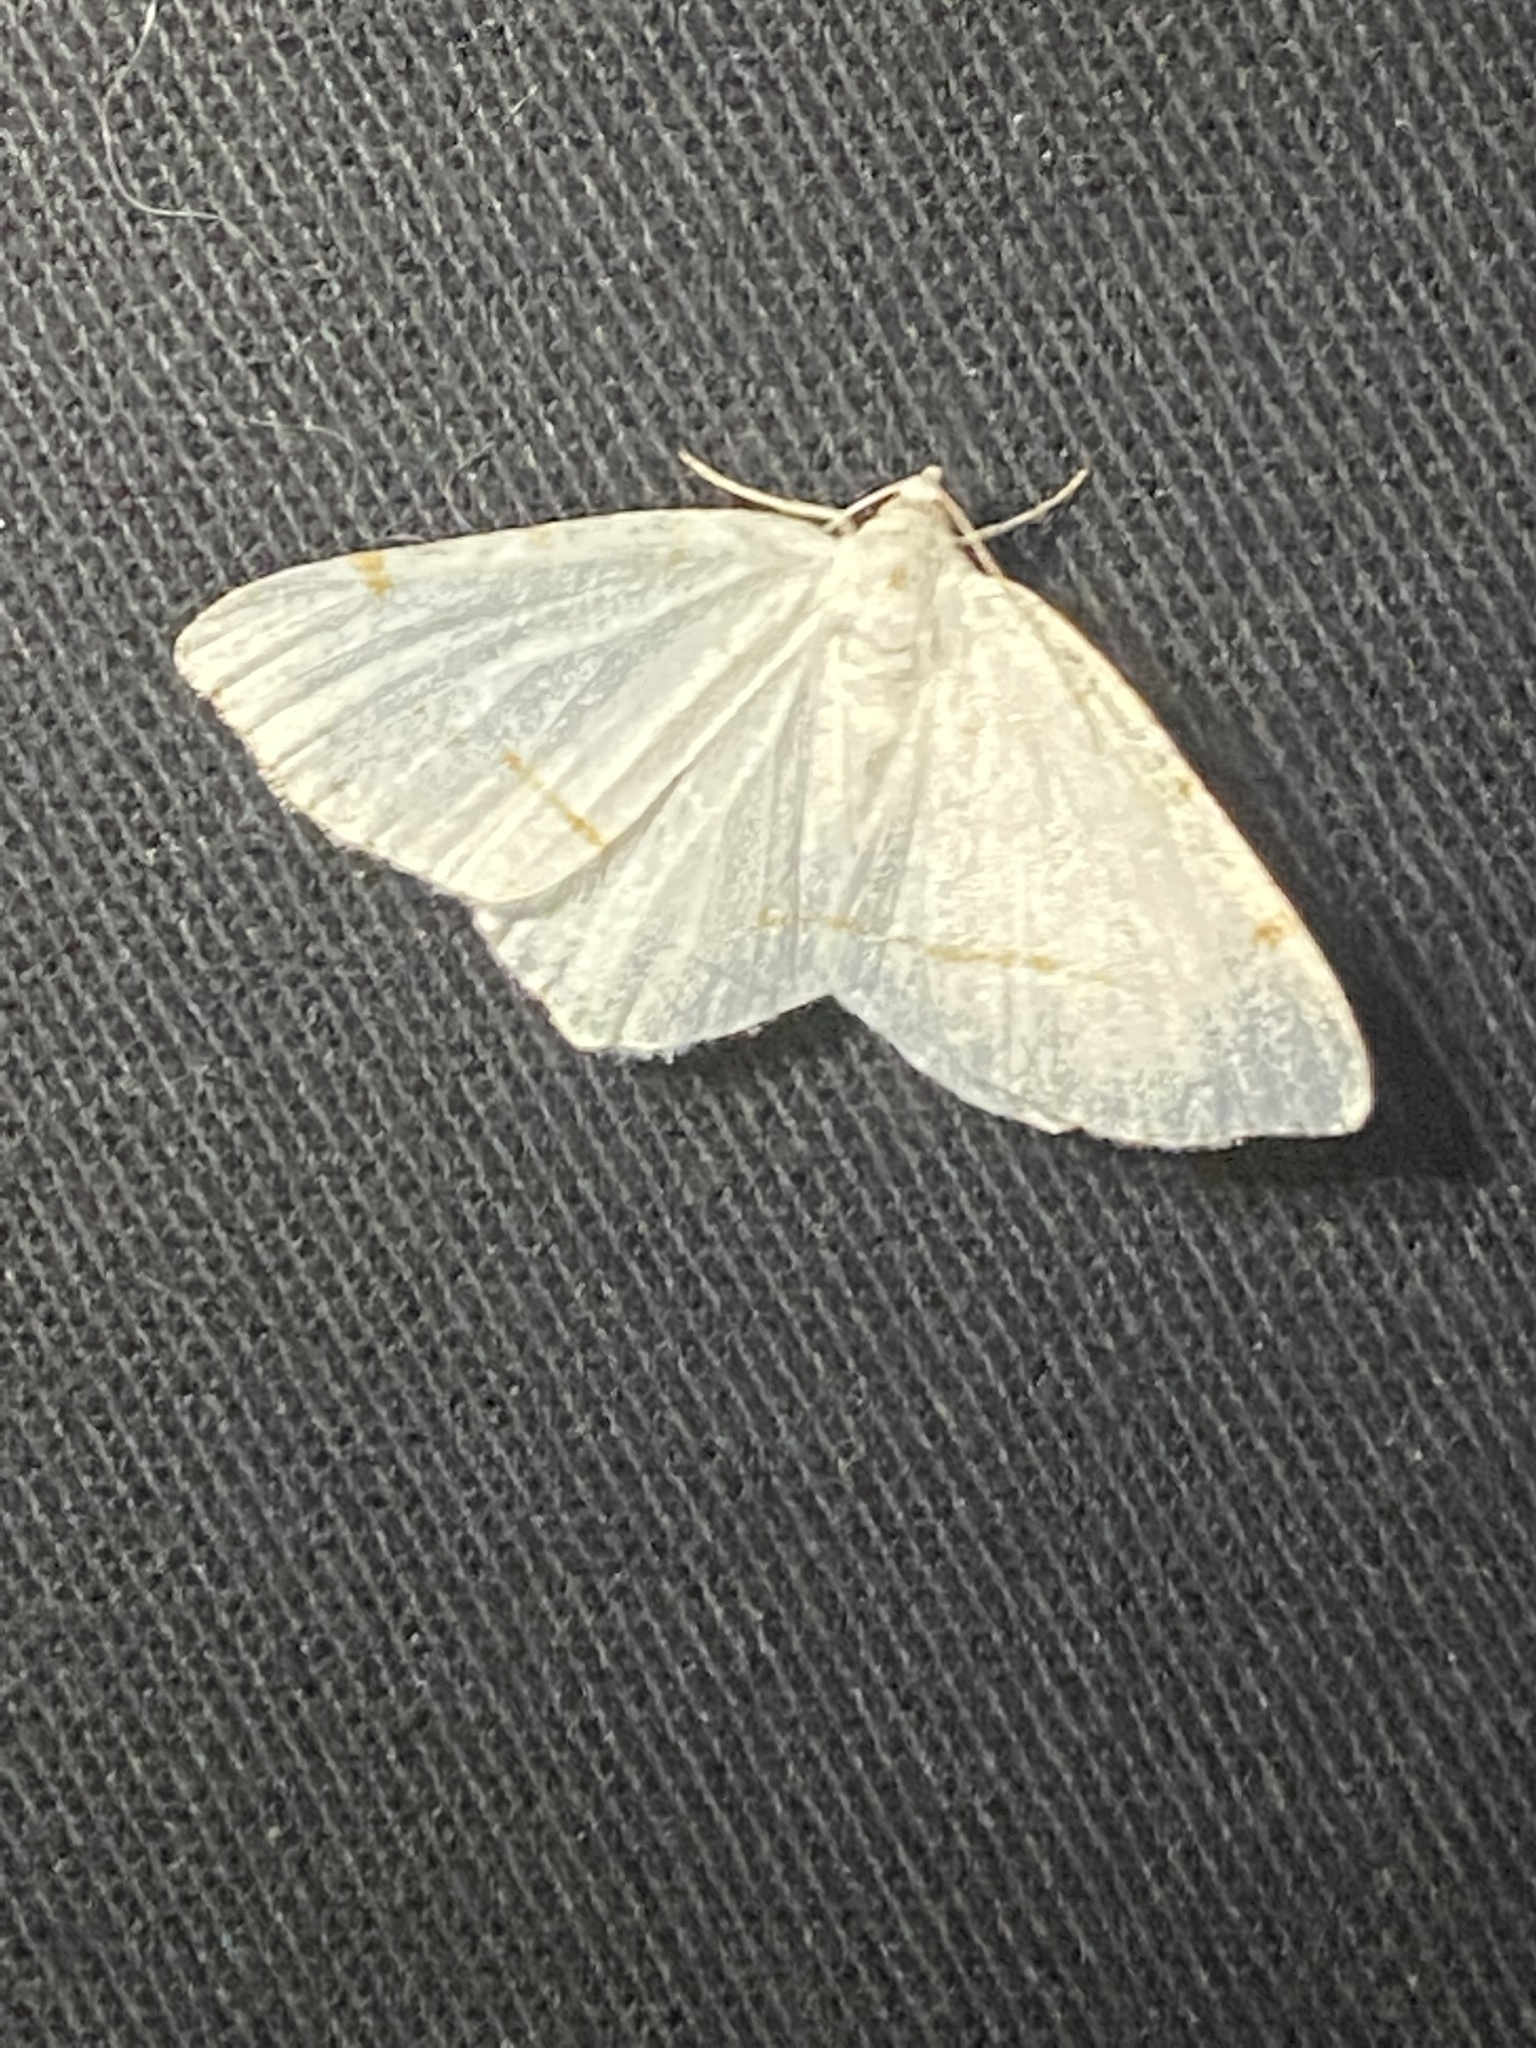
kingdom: Animalia
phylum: Arthropoda
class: Insecta
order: Lepidoptera
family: Geometridae
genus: Macaria
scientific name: Macaria pustularia
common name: Lesser maple spanworm moth
